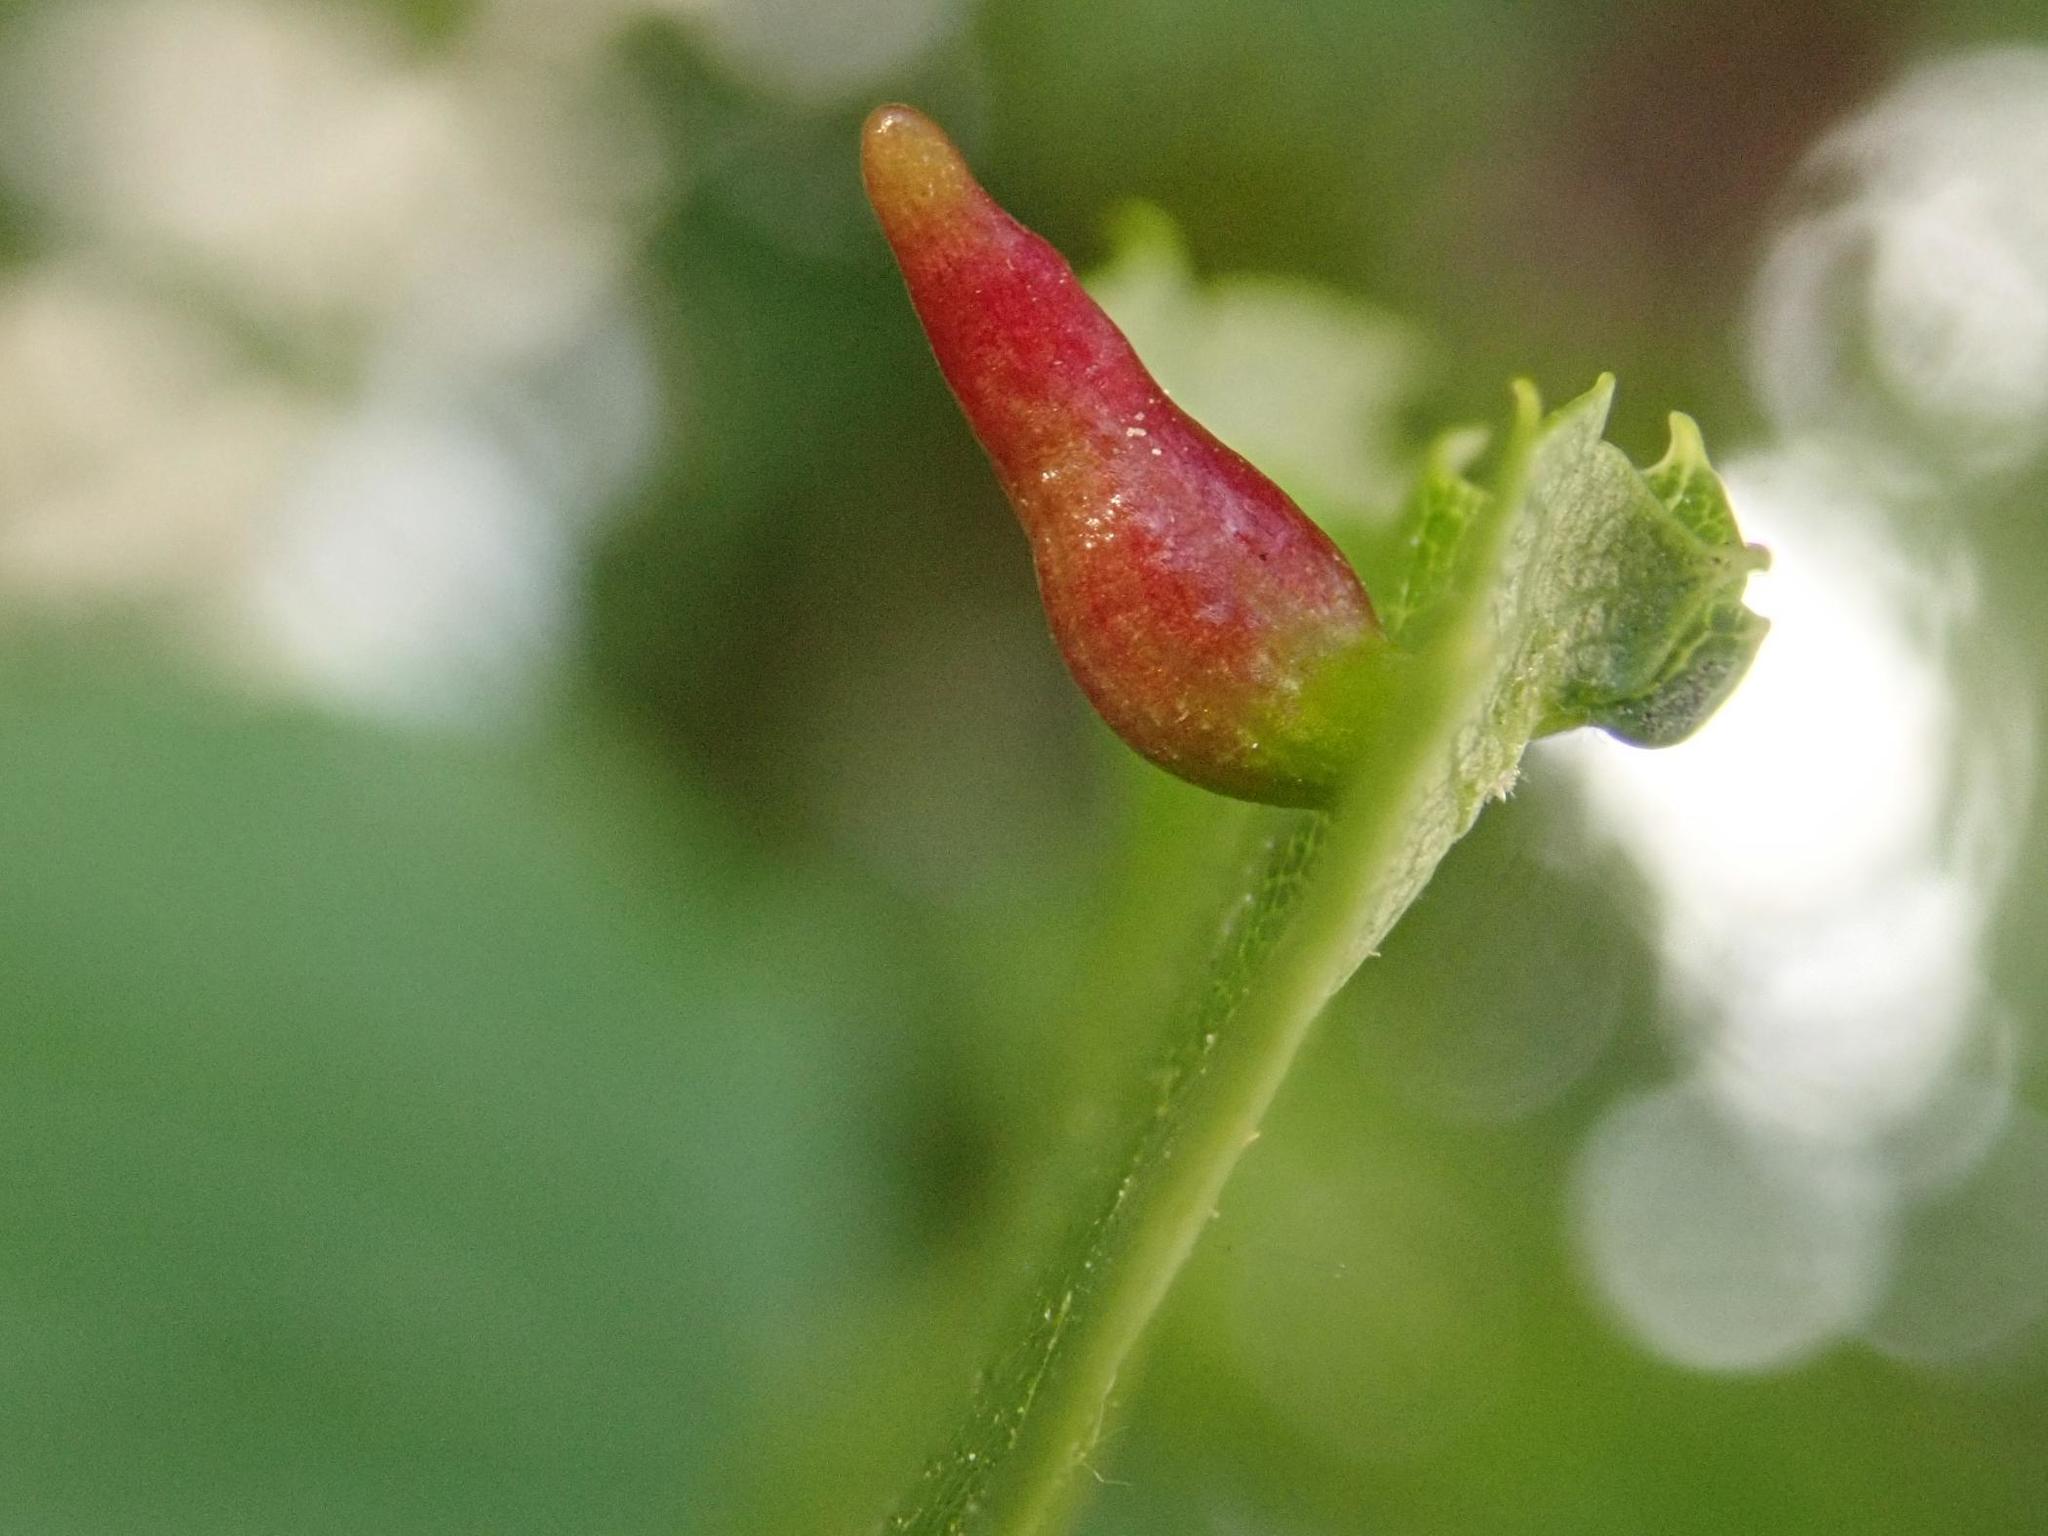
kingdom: Animalia
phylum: Arthropoda
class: Arachnida
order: Trombidiformes
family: Eriophyidae
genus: Eriophyes
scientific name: Eriophyes tiliae
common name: Red nail gall mite
